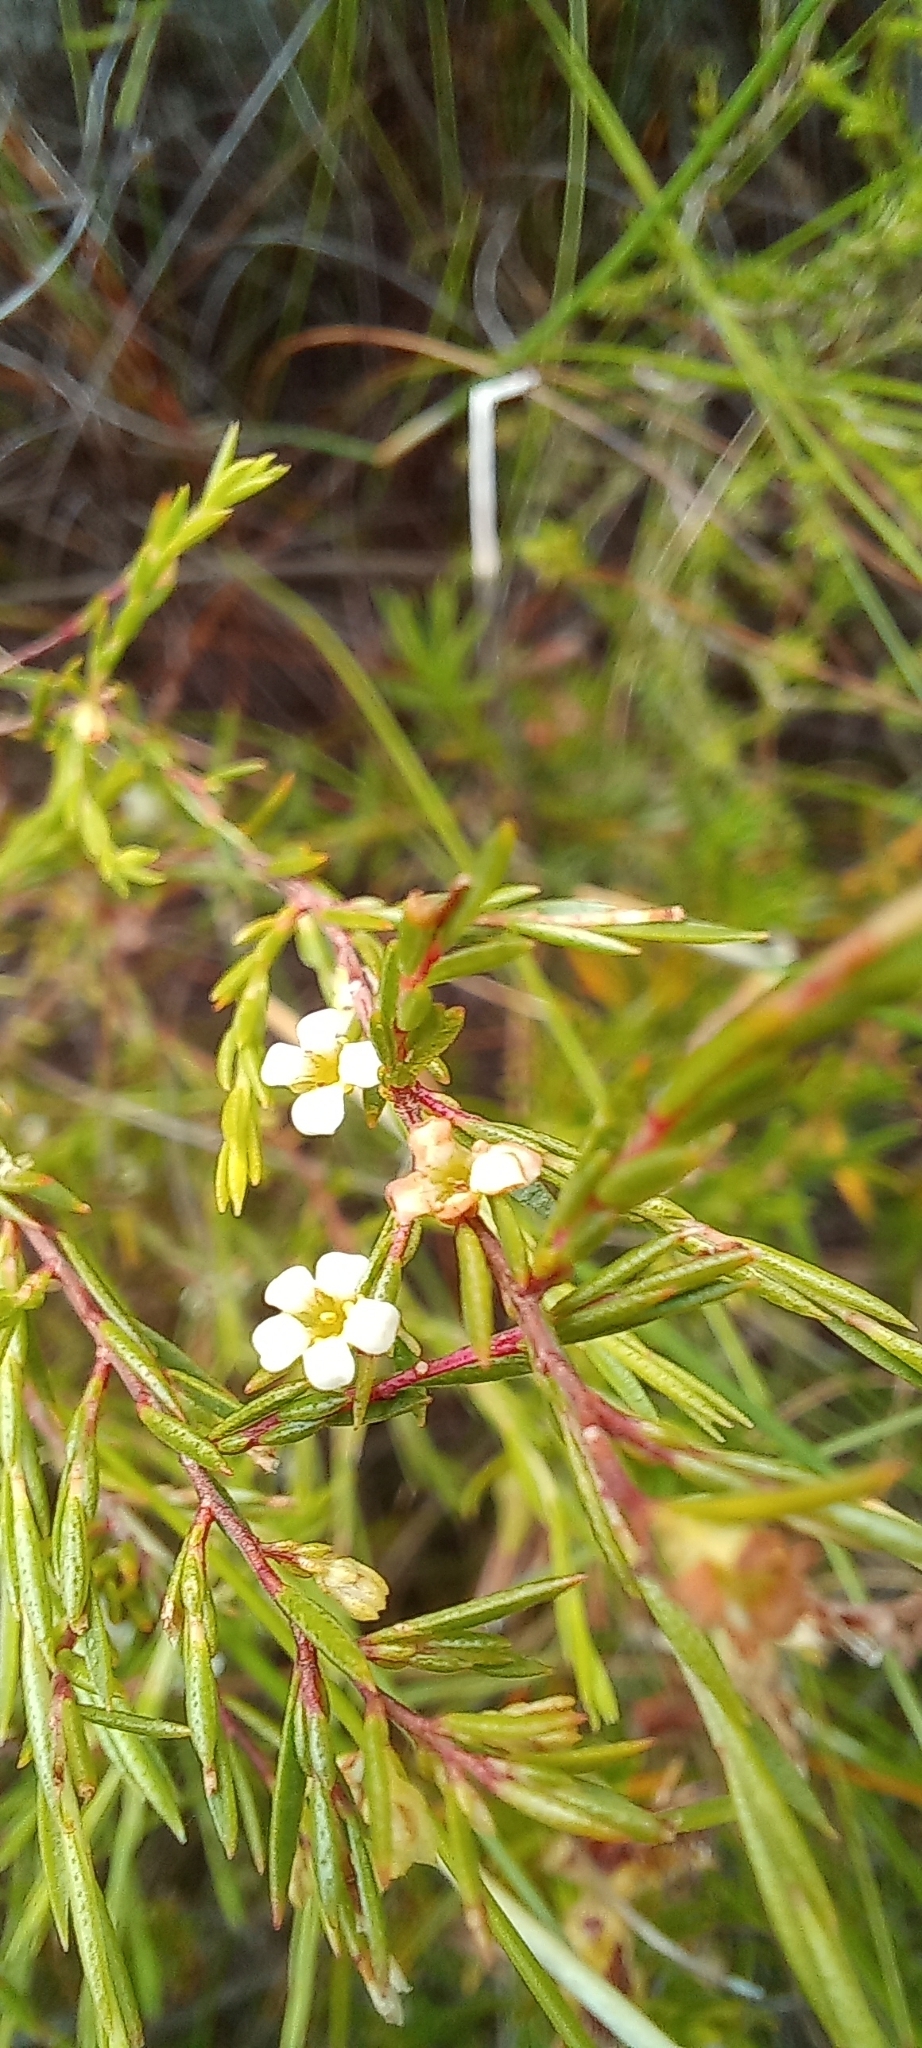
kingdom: Plantae
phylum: Tracheophyta
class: Magnoliopsida
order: Sapindales
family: Rutaceae
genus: Coleonema
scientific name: Coleonema juniperinum
